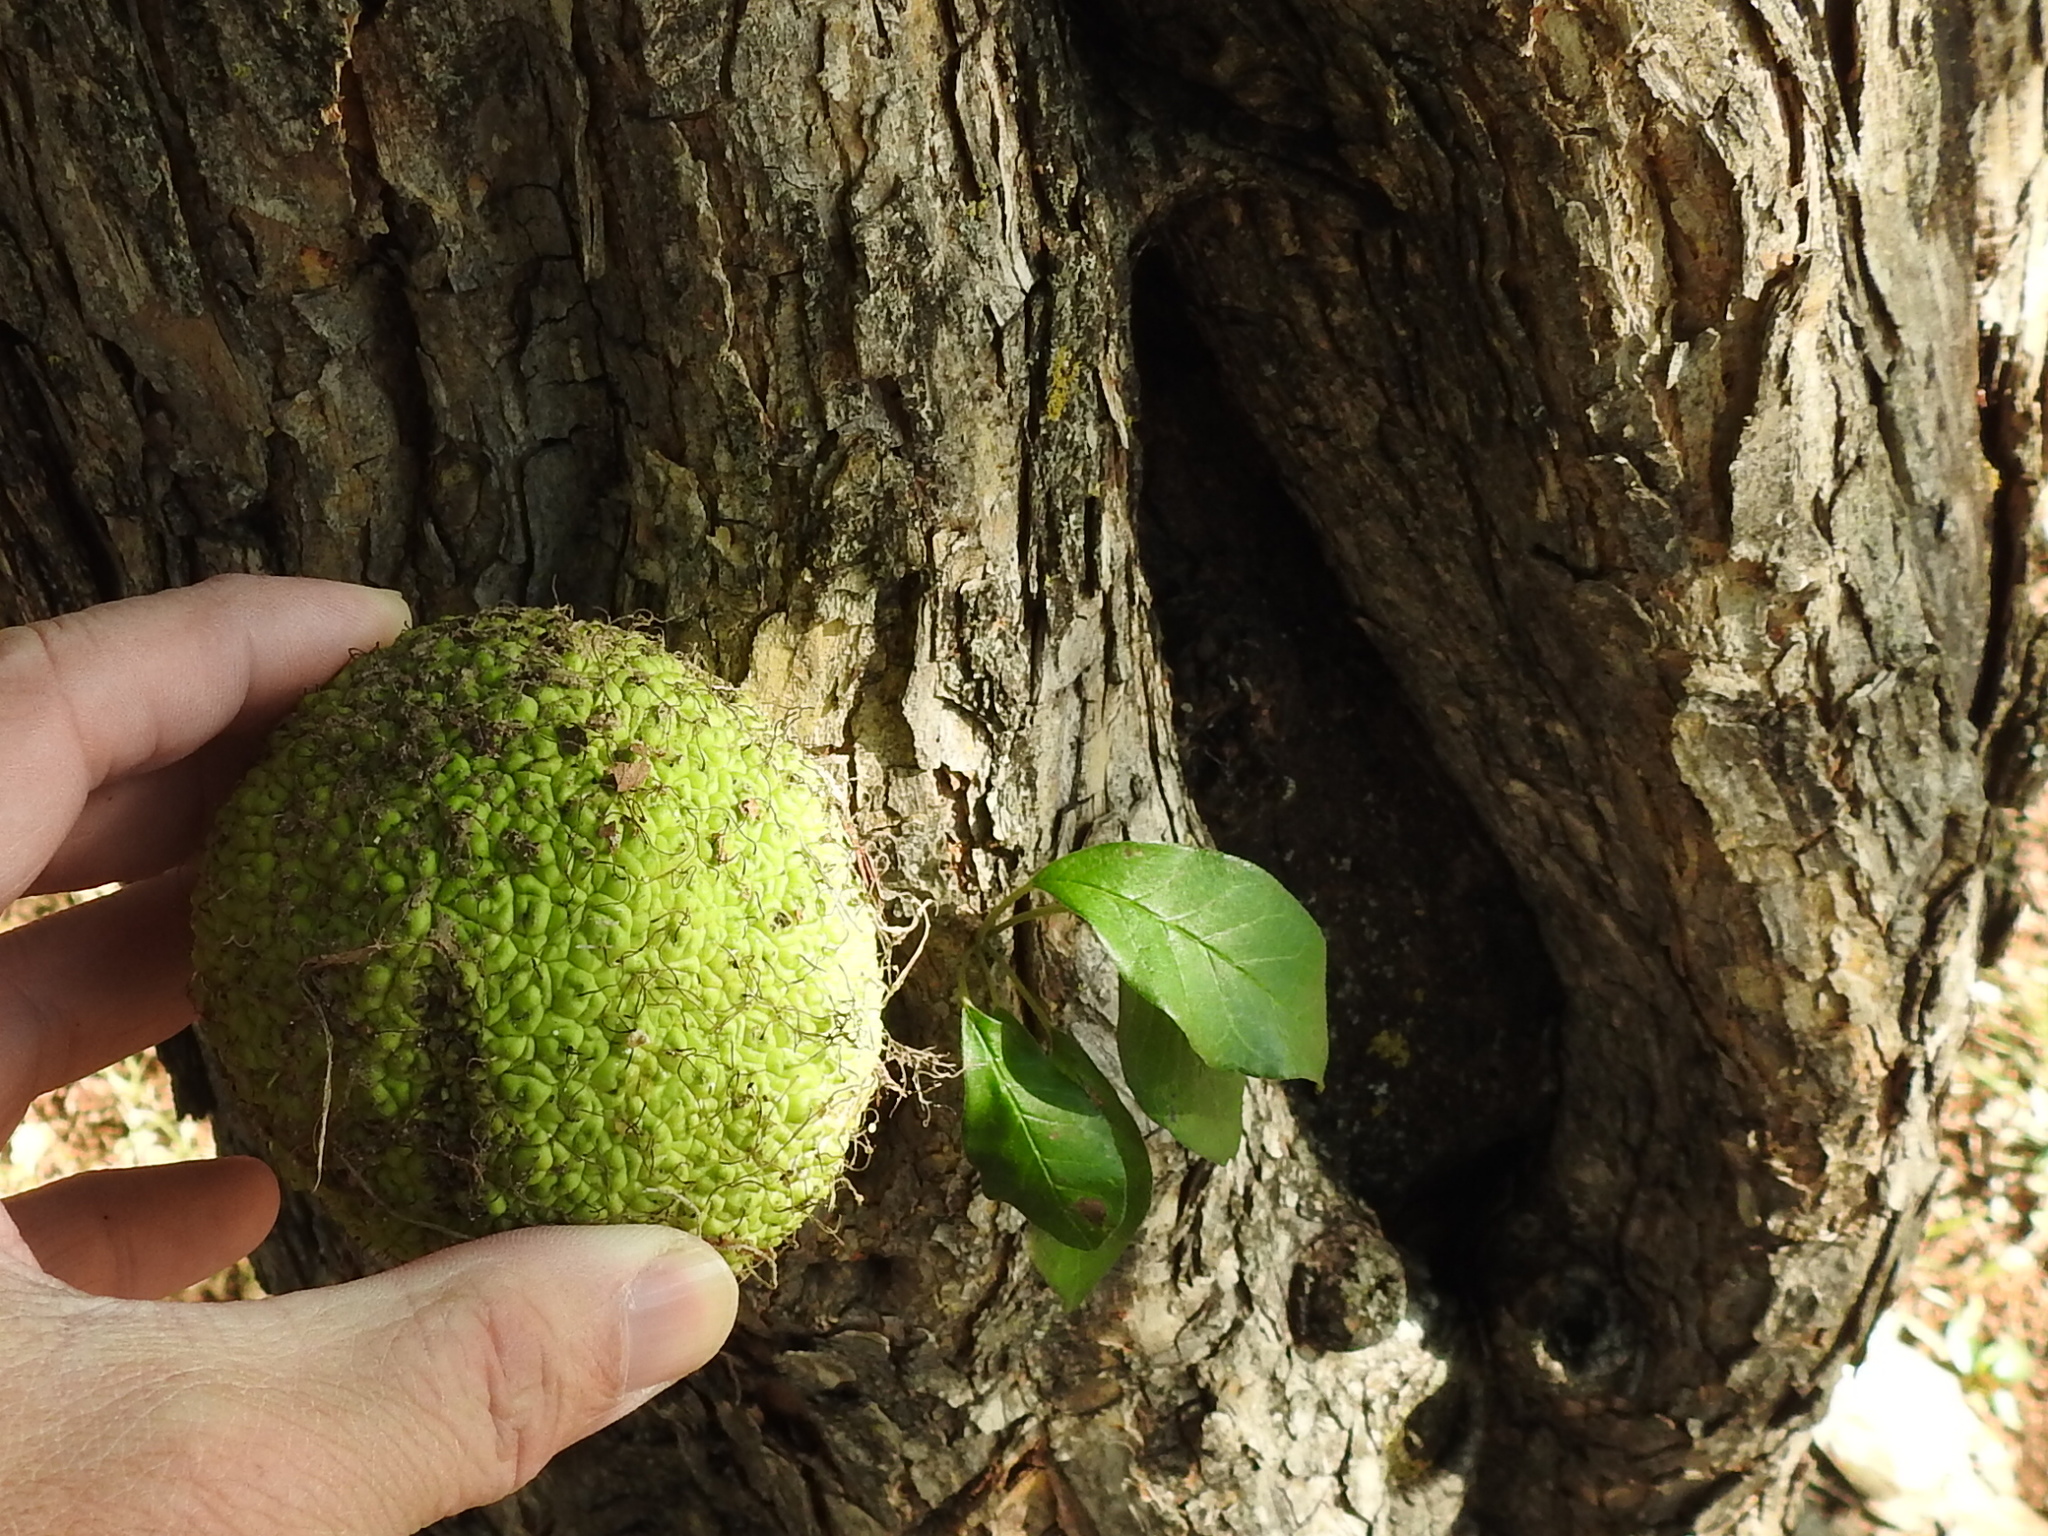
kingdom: Plantae
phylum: Tracheophyta
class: Magnoliopsida
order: Rosales
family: Moraceae
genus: Maclura
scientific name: Maclura pomifera
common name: Osage-orange
